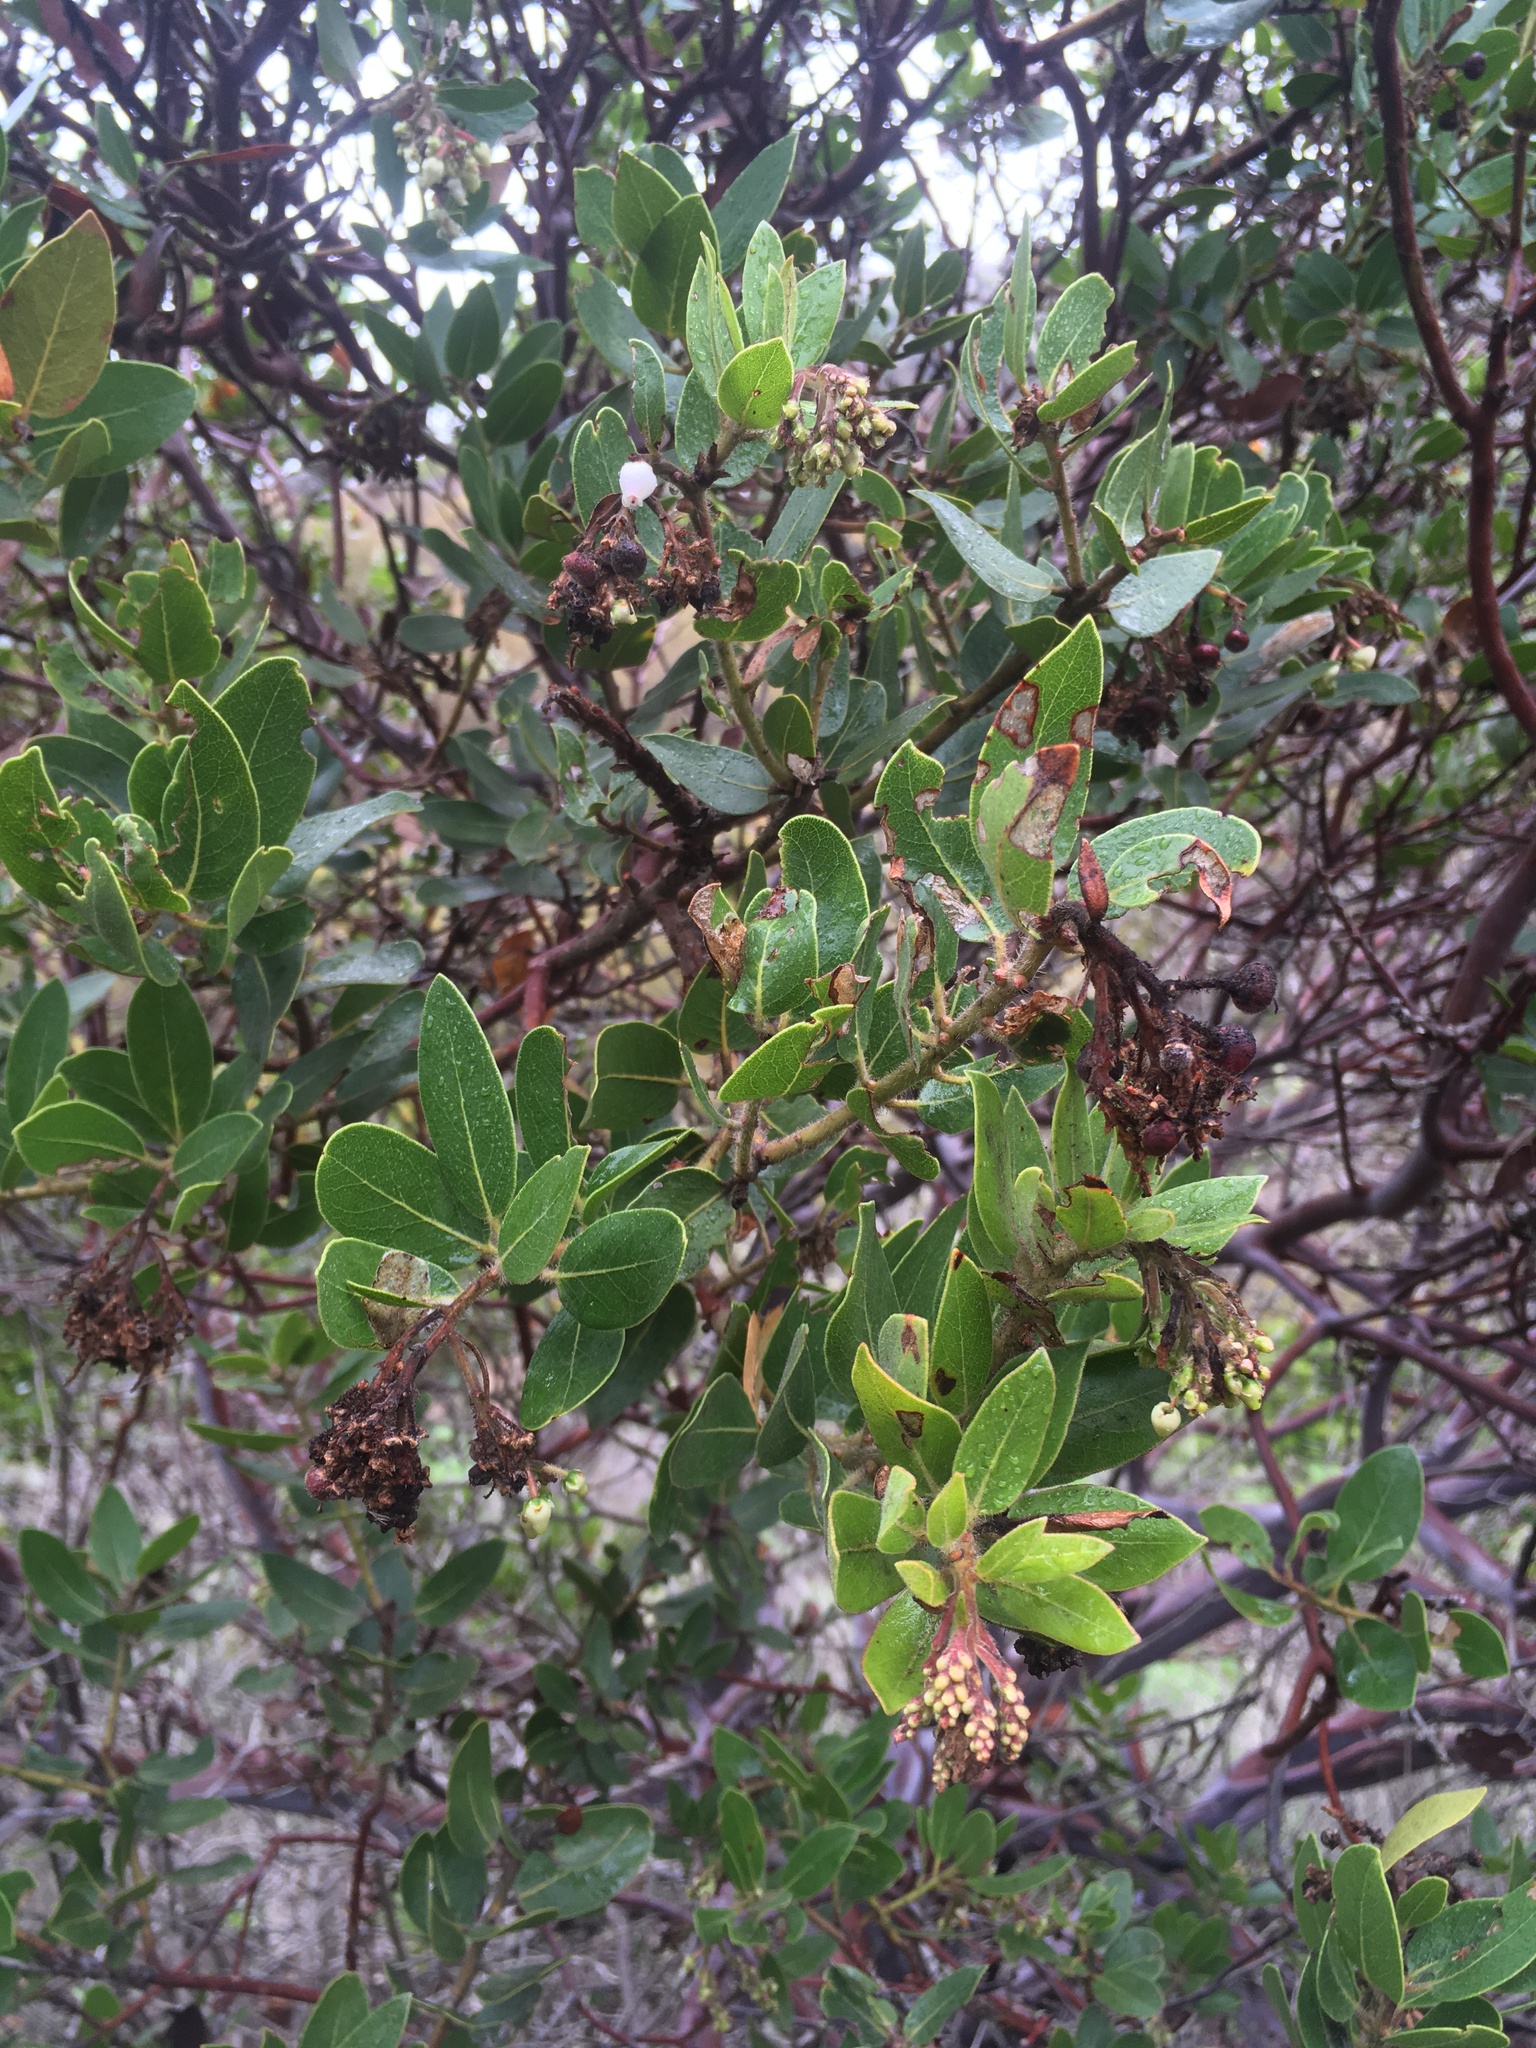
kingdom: Plantae
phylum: Tracheophyta
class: Magnoliopsida
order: Ericales
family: Ericaceae
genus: Arctostaphylos
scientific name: Arctostaphylos insularis
